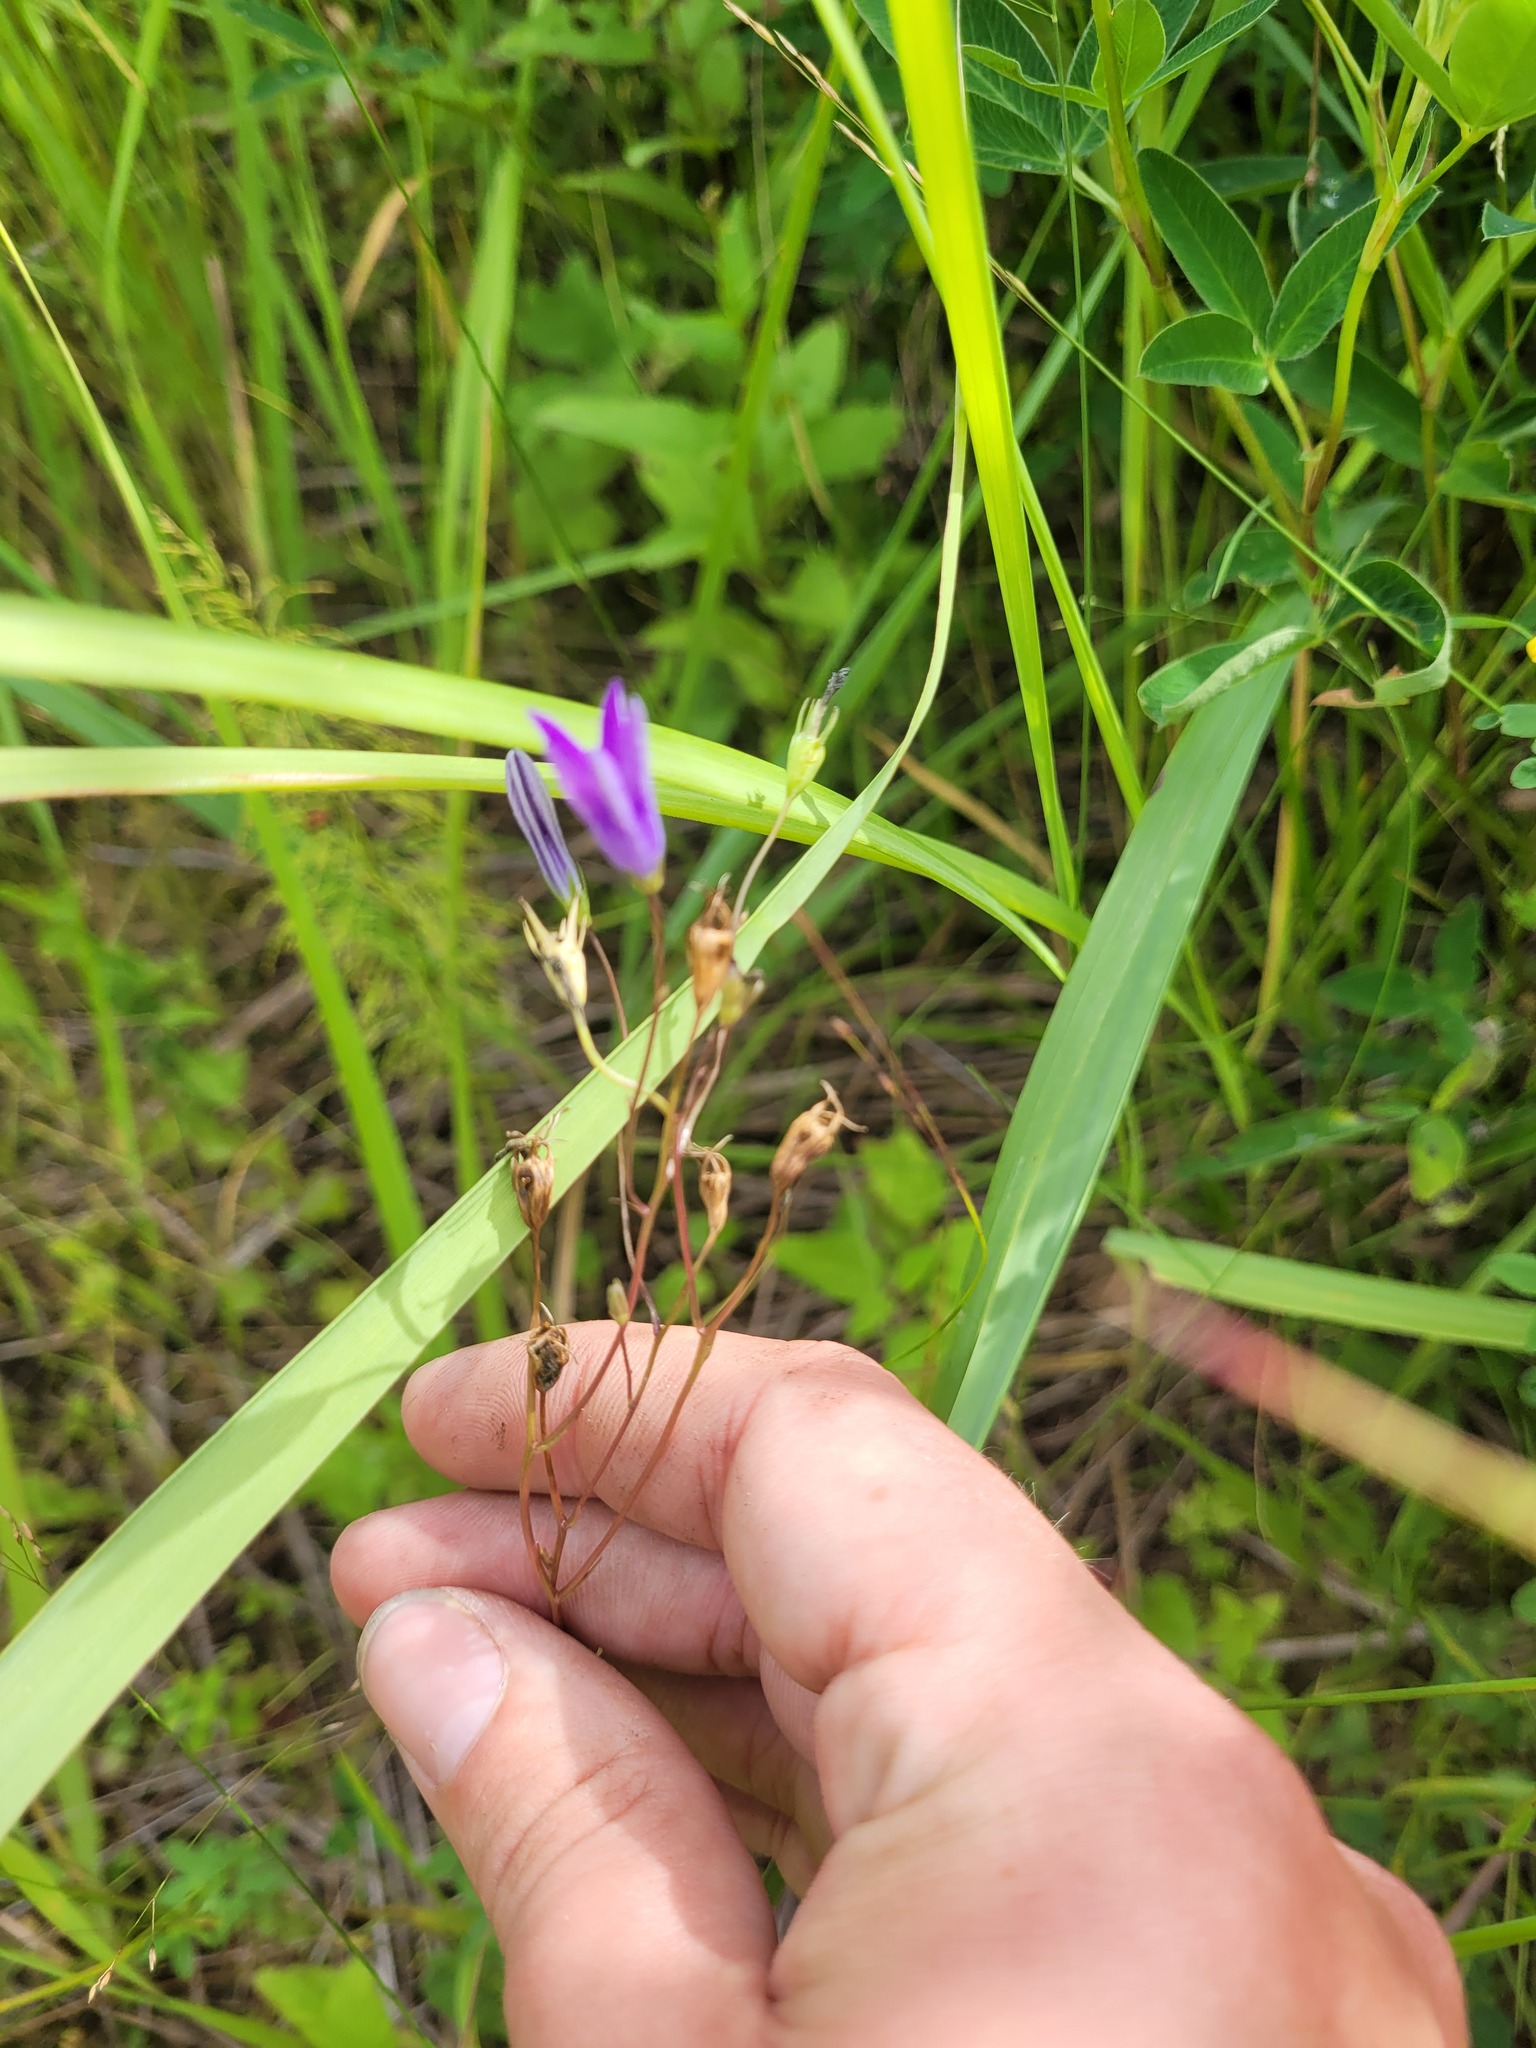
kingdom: Plantae
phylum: Tracheophyta
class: Magnoliopsida
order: Asterales
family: Campanulaceae
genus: Campanula
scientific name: Campanula patula
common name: Spreading bellflower
